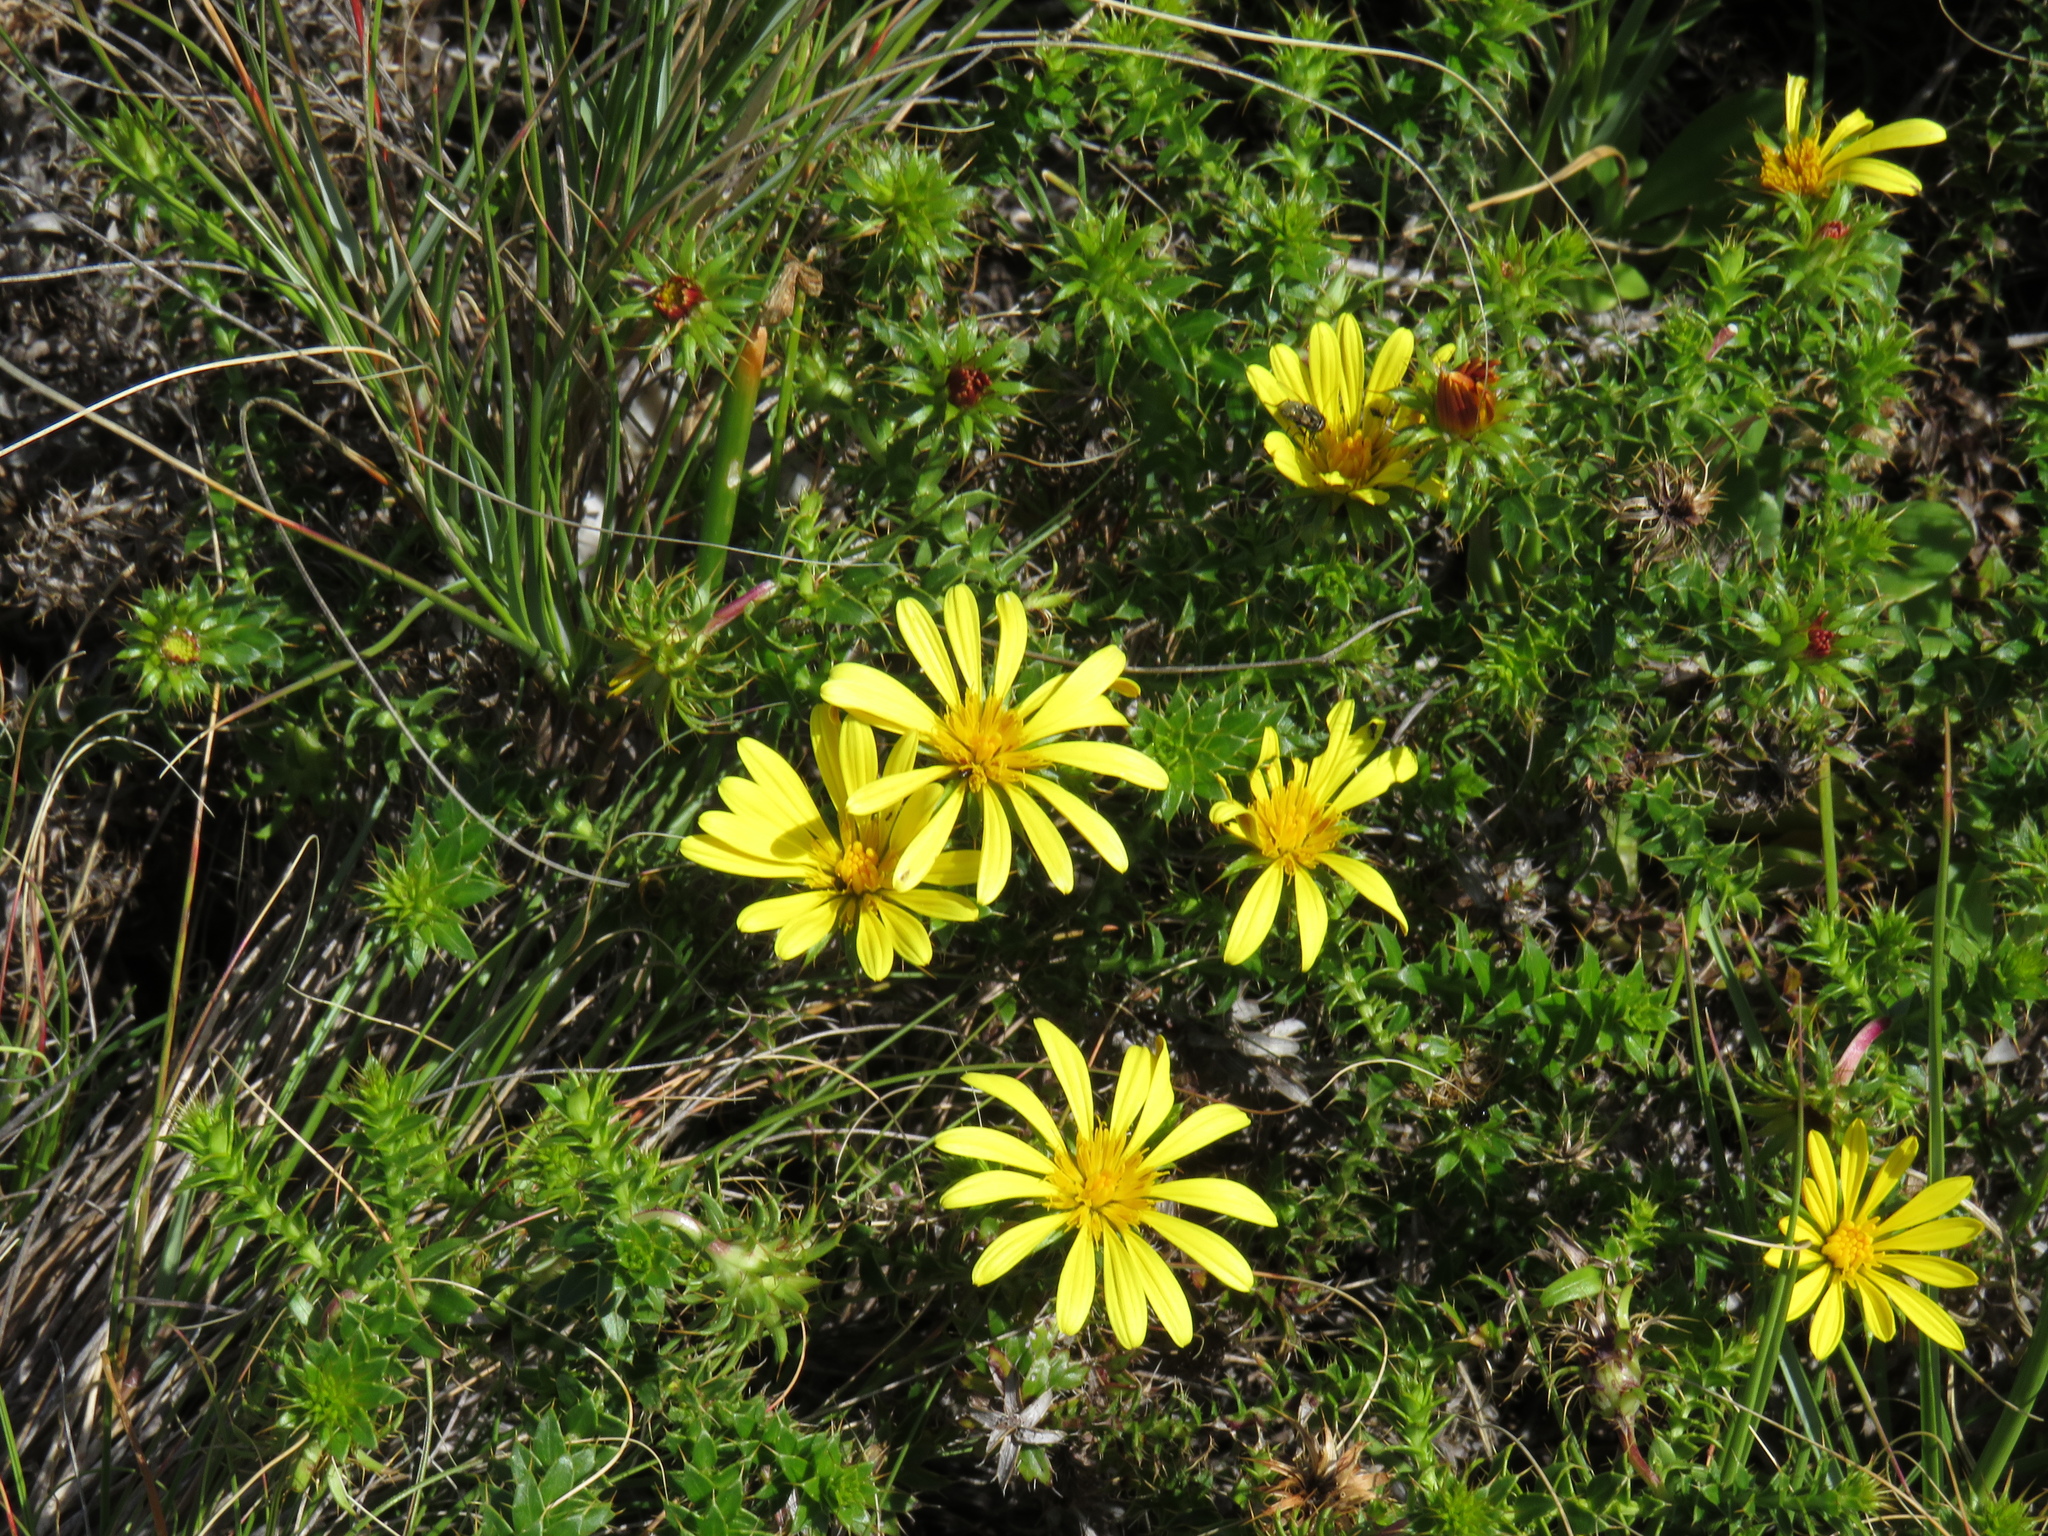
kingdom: Plantae
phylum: Tracheophyta
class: Magnoliopsida
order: Asterales
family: Asteraceae
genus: Cullumia
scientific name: Cullumia setosa
